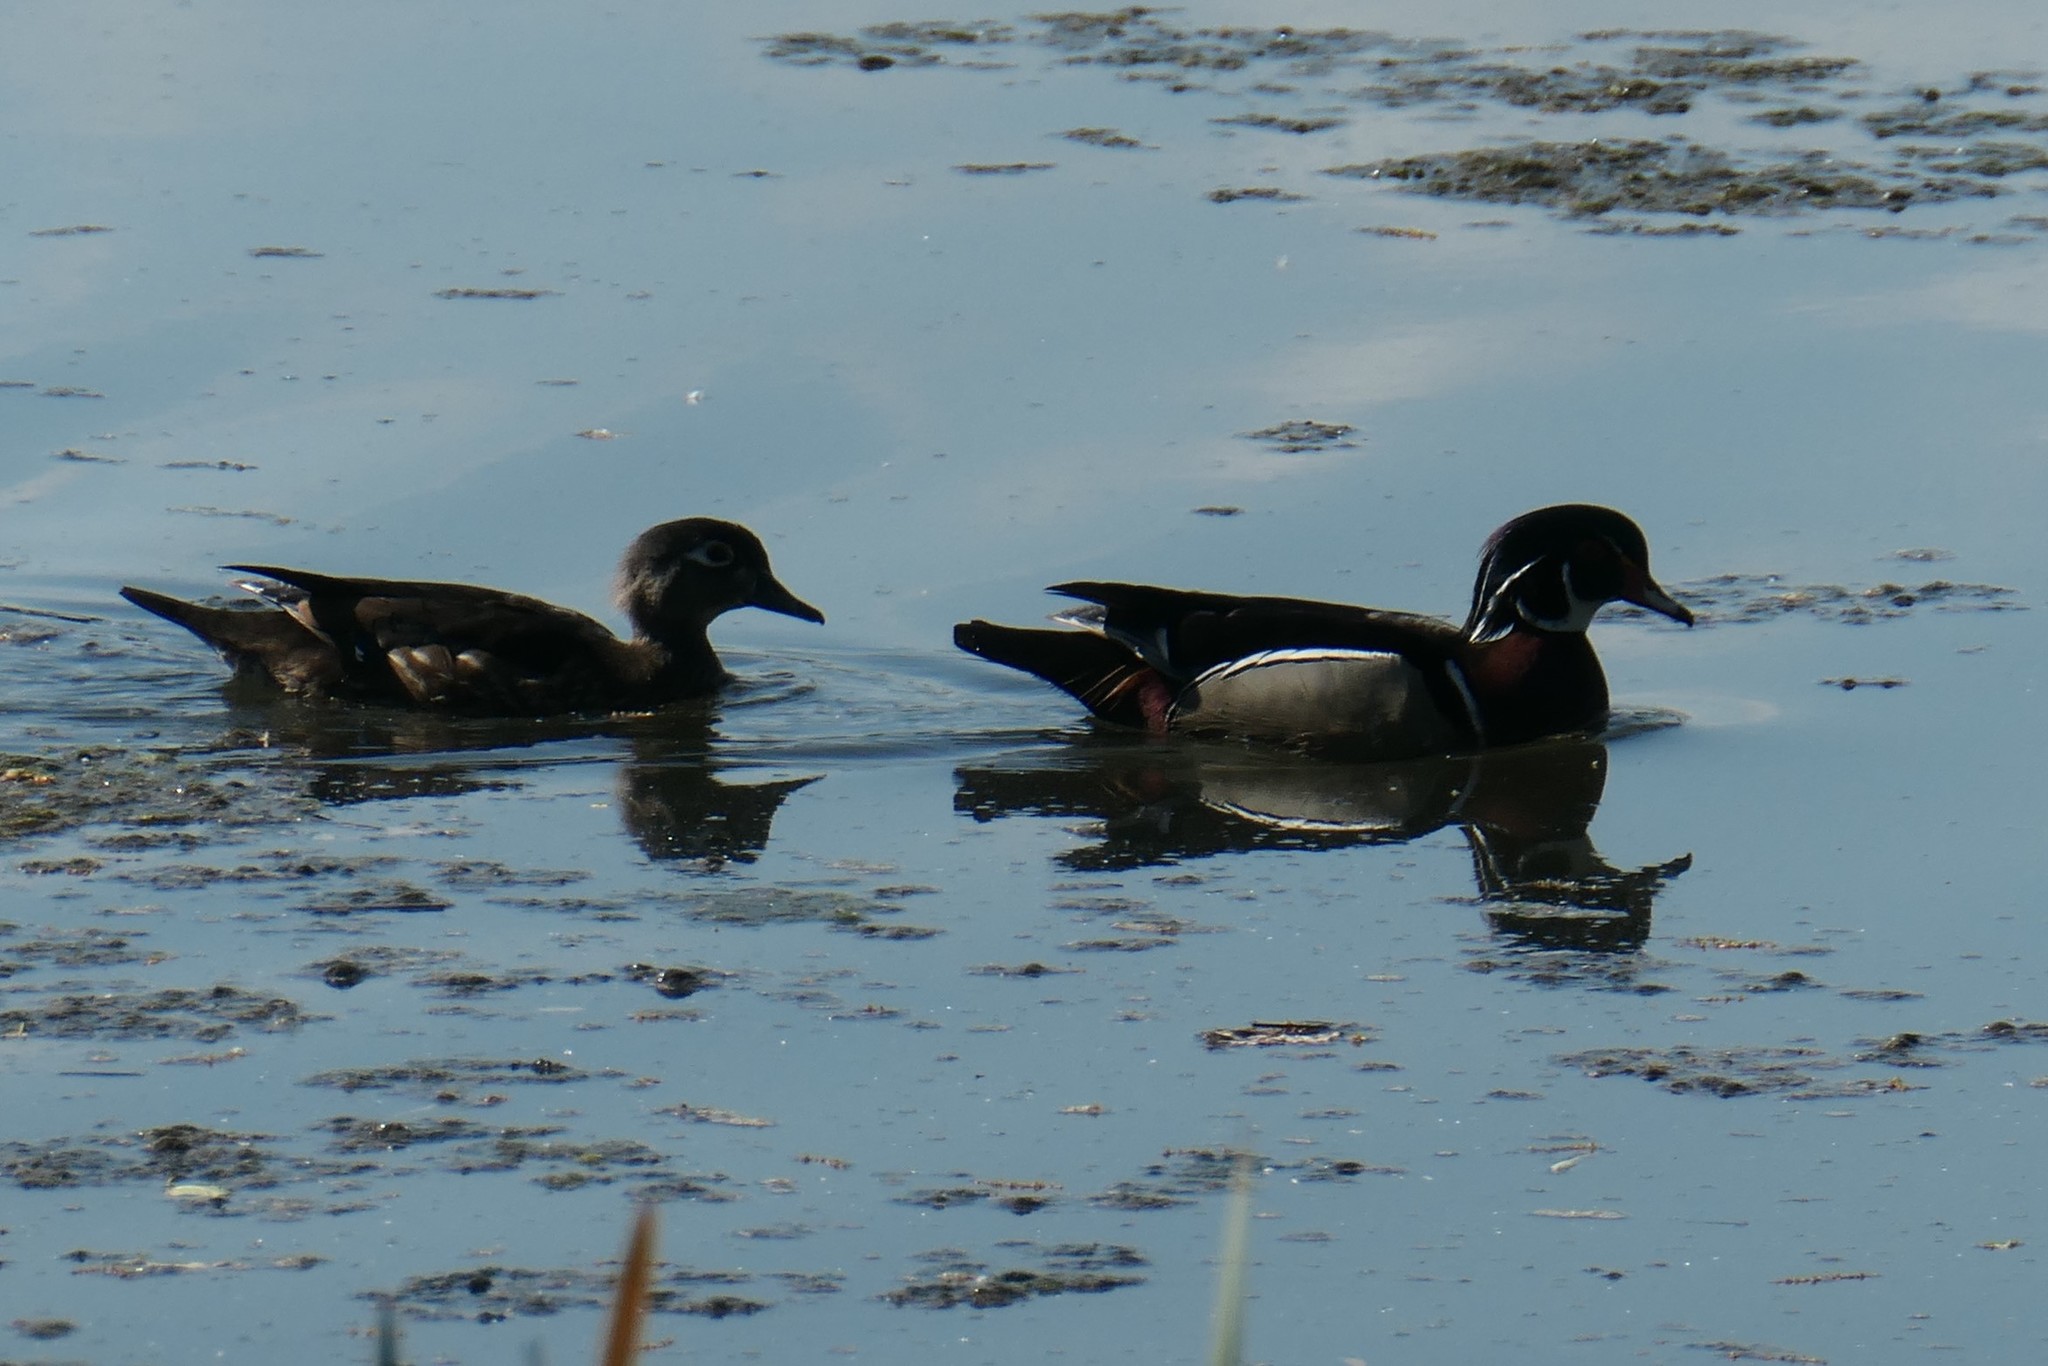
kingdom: Animalia
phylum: Chordata
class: Aves
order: Anseriformes
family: Anatidae
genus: Aix
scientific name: Aix sponsa
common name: Wood duck
